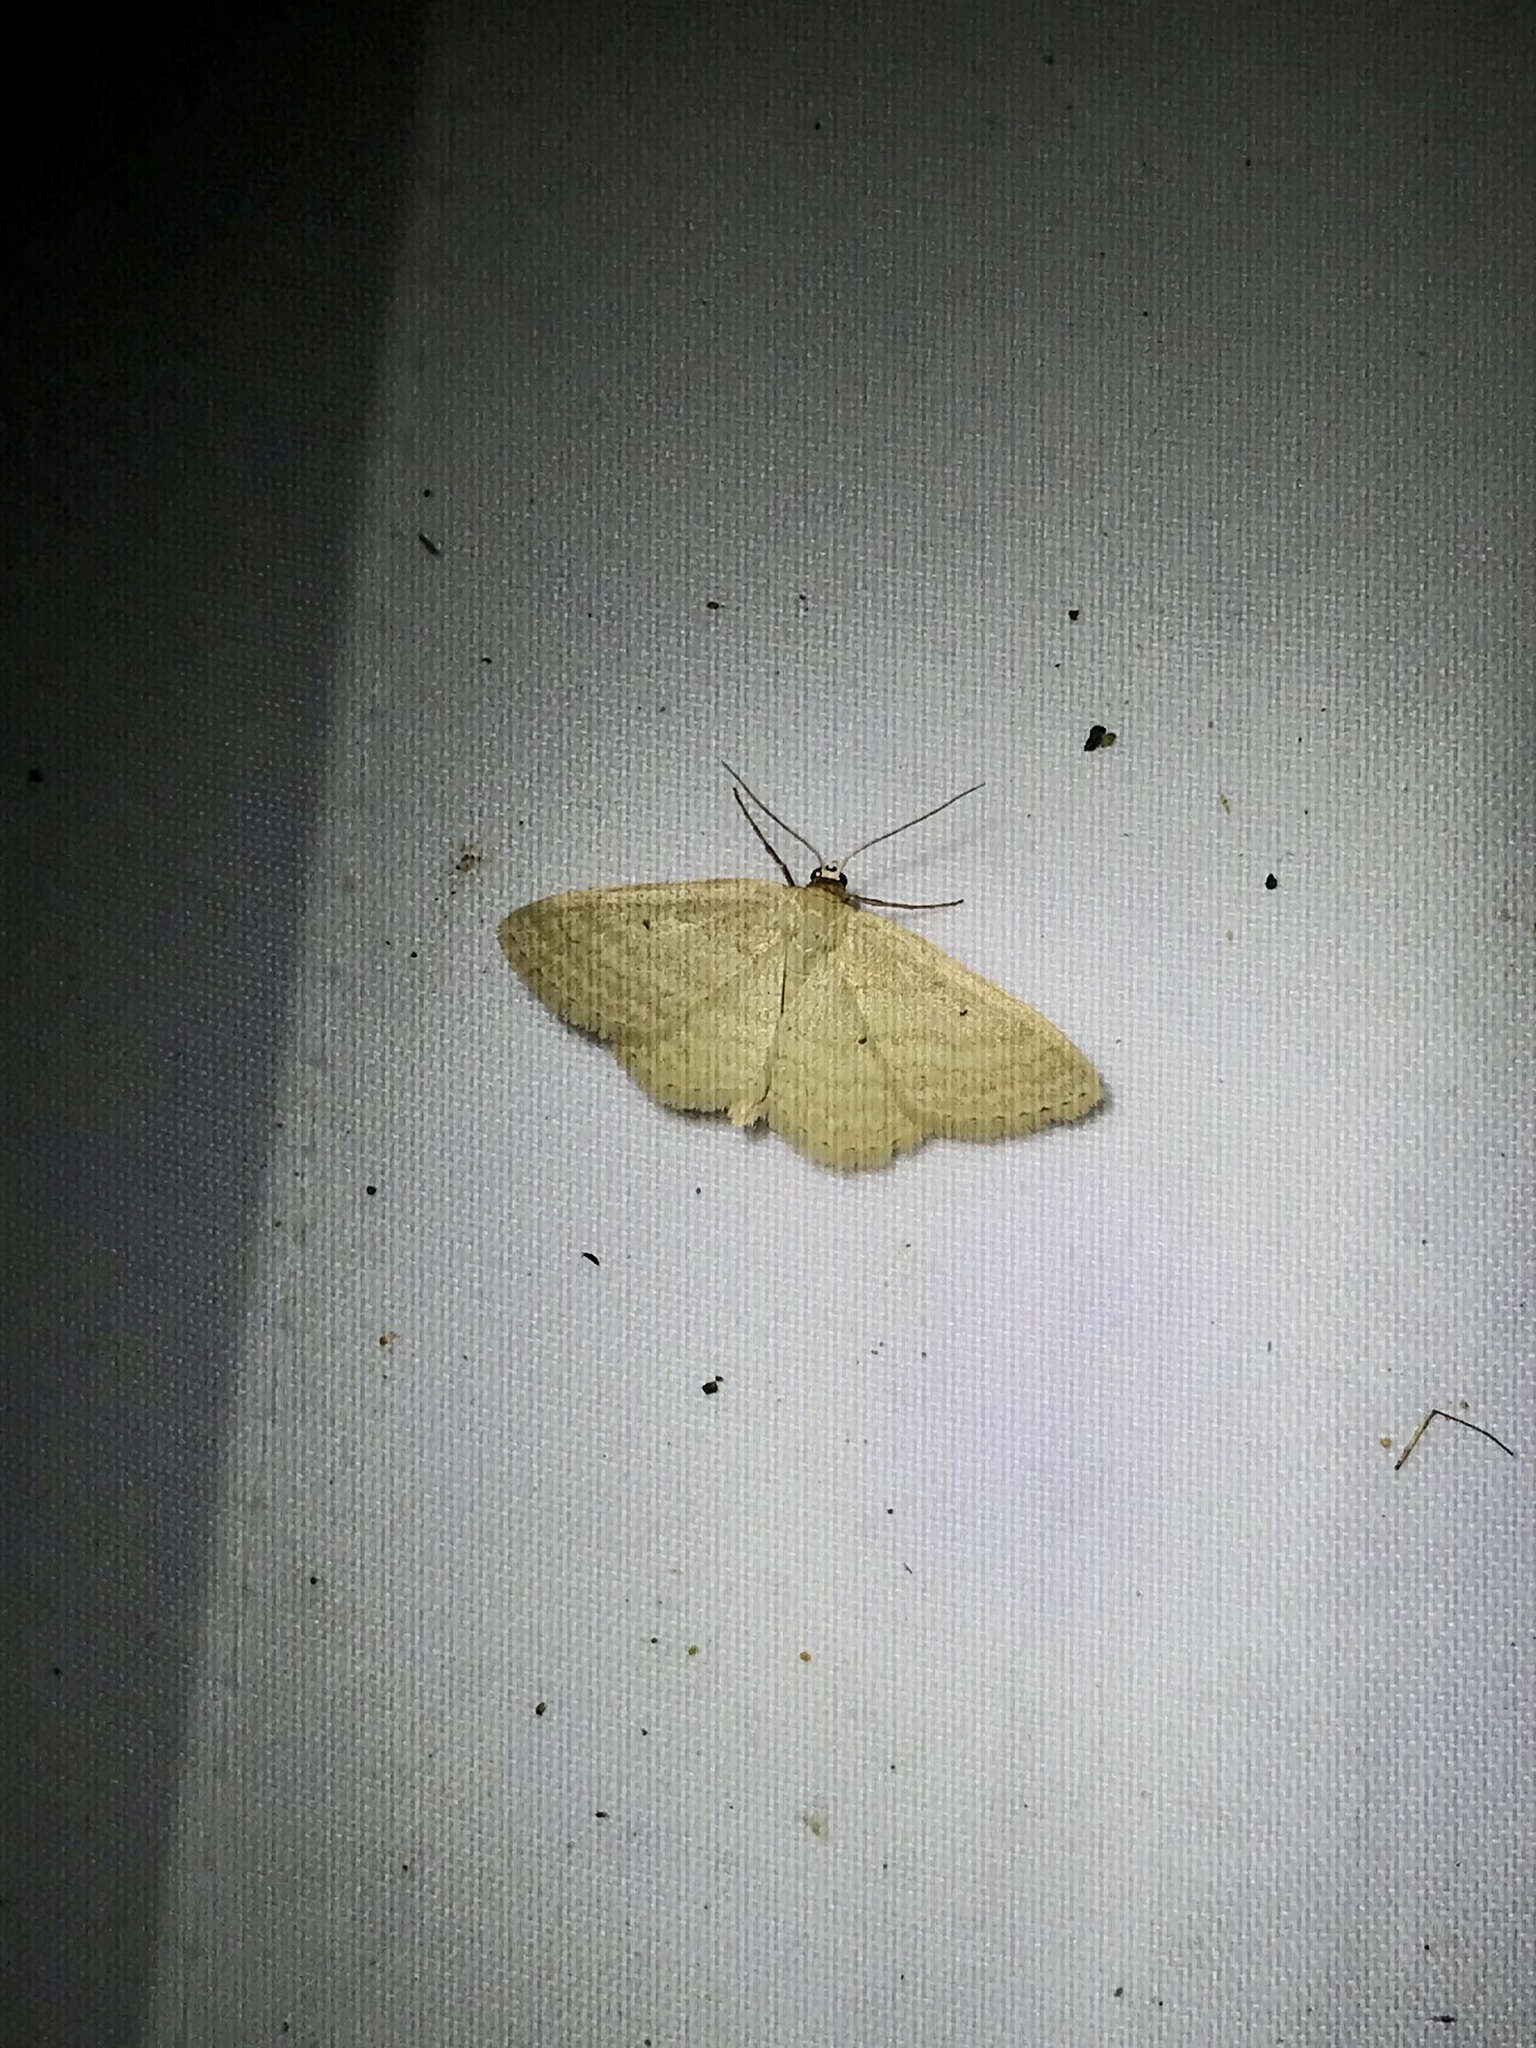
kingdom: Animalia
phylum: Arthropoda
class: Insecta
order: Lepidoptera
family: Geometridae
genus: Scopula
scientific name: Scopula inductata
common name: Soft-lined wave
